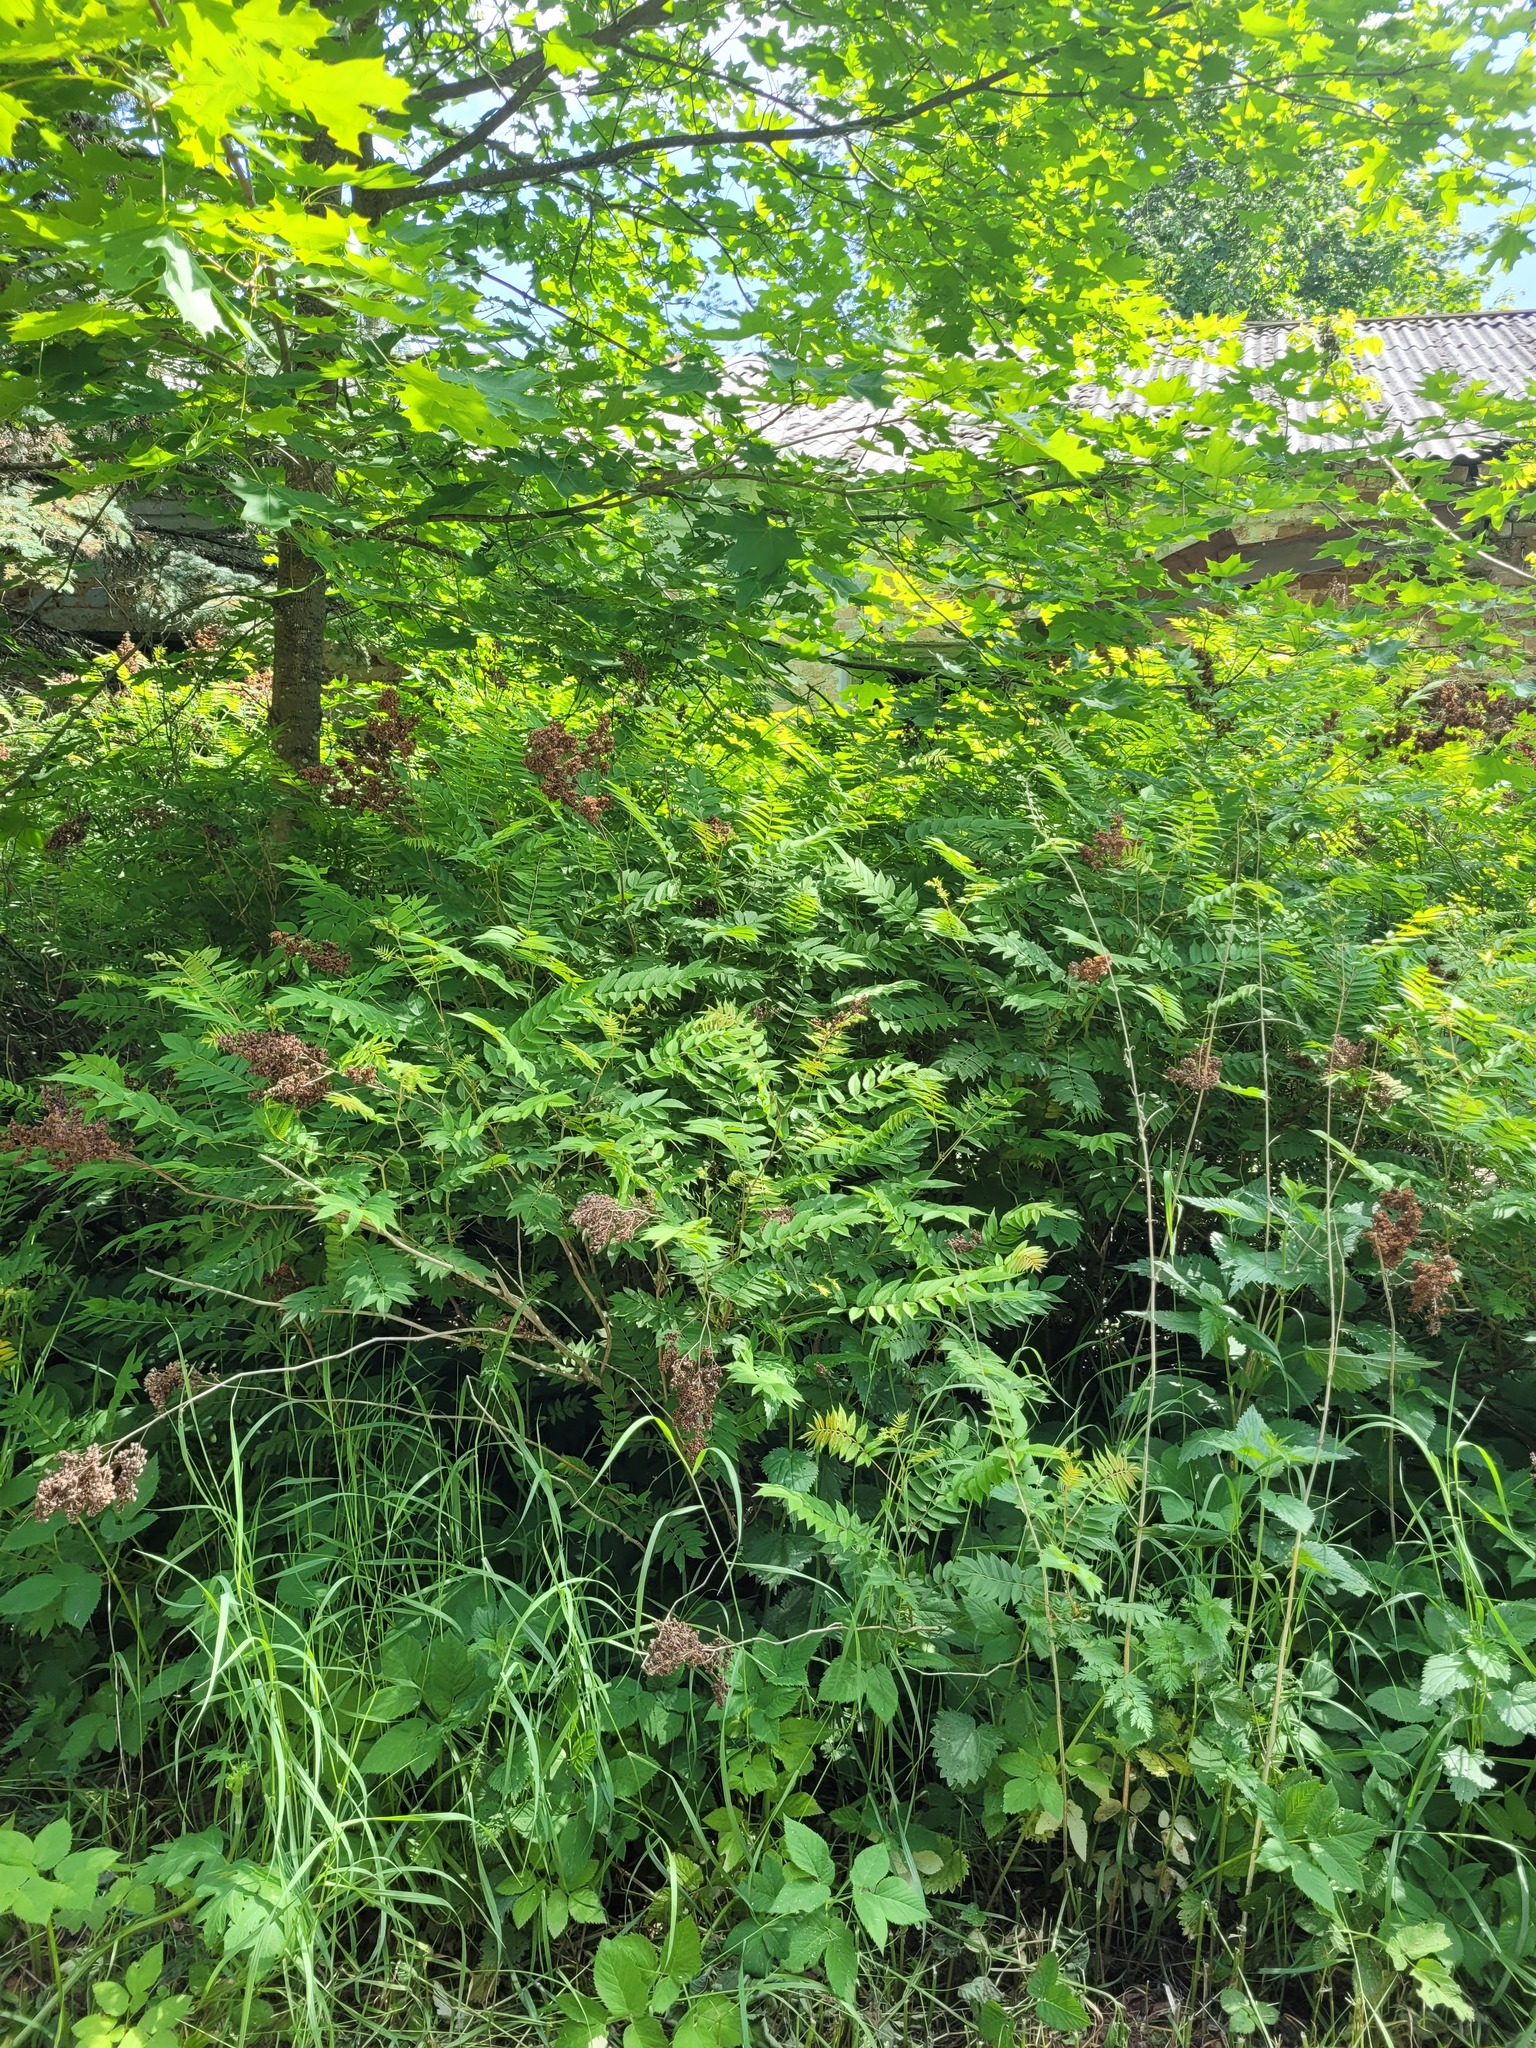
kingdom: Plantae
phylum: Tracheophyta
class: Magnoliopsida
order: Rosales
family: Rosaceae
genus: Sorbaria
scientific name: Sorbaria sorbifolia
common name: False spiraea
